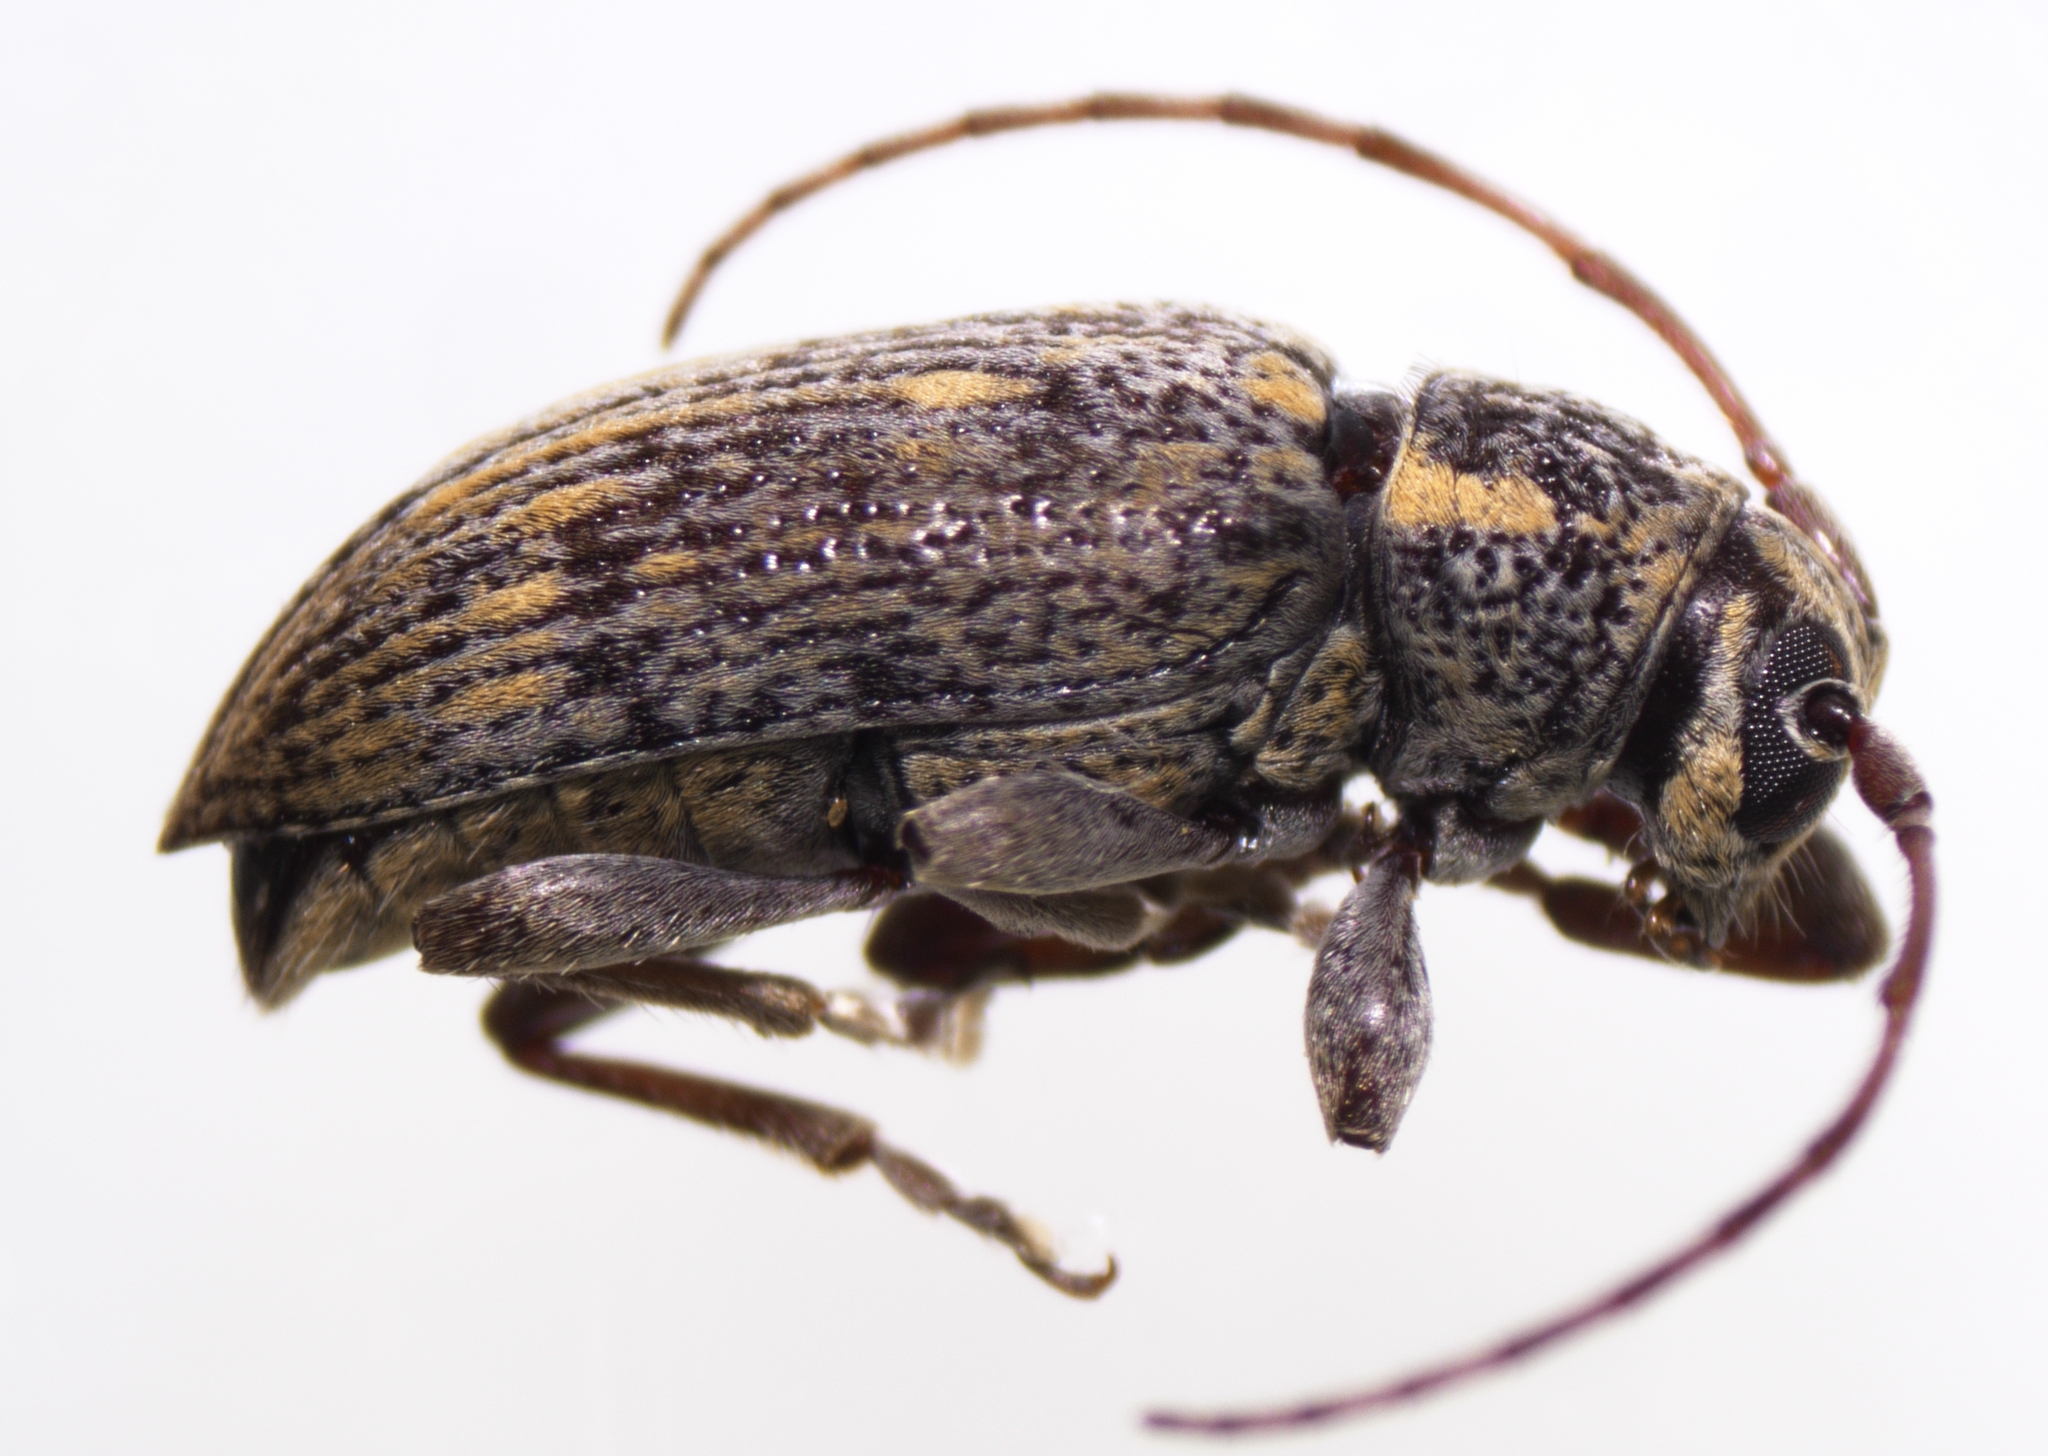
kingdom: Animalia
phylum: Arthropoda
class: Insecta
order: Coleoptera
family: Cerambycidae
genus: Oopsis
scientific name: Oopsis nutator
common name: Oopsis long-horned beetle
